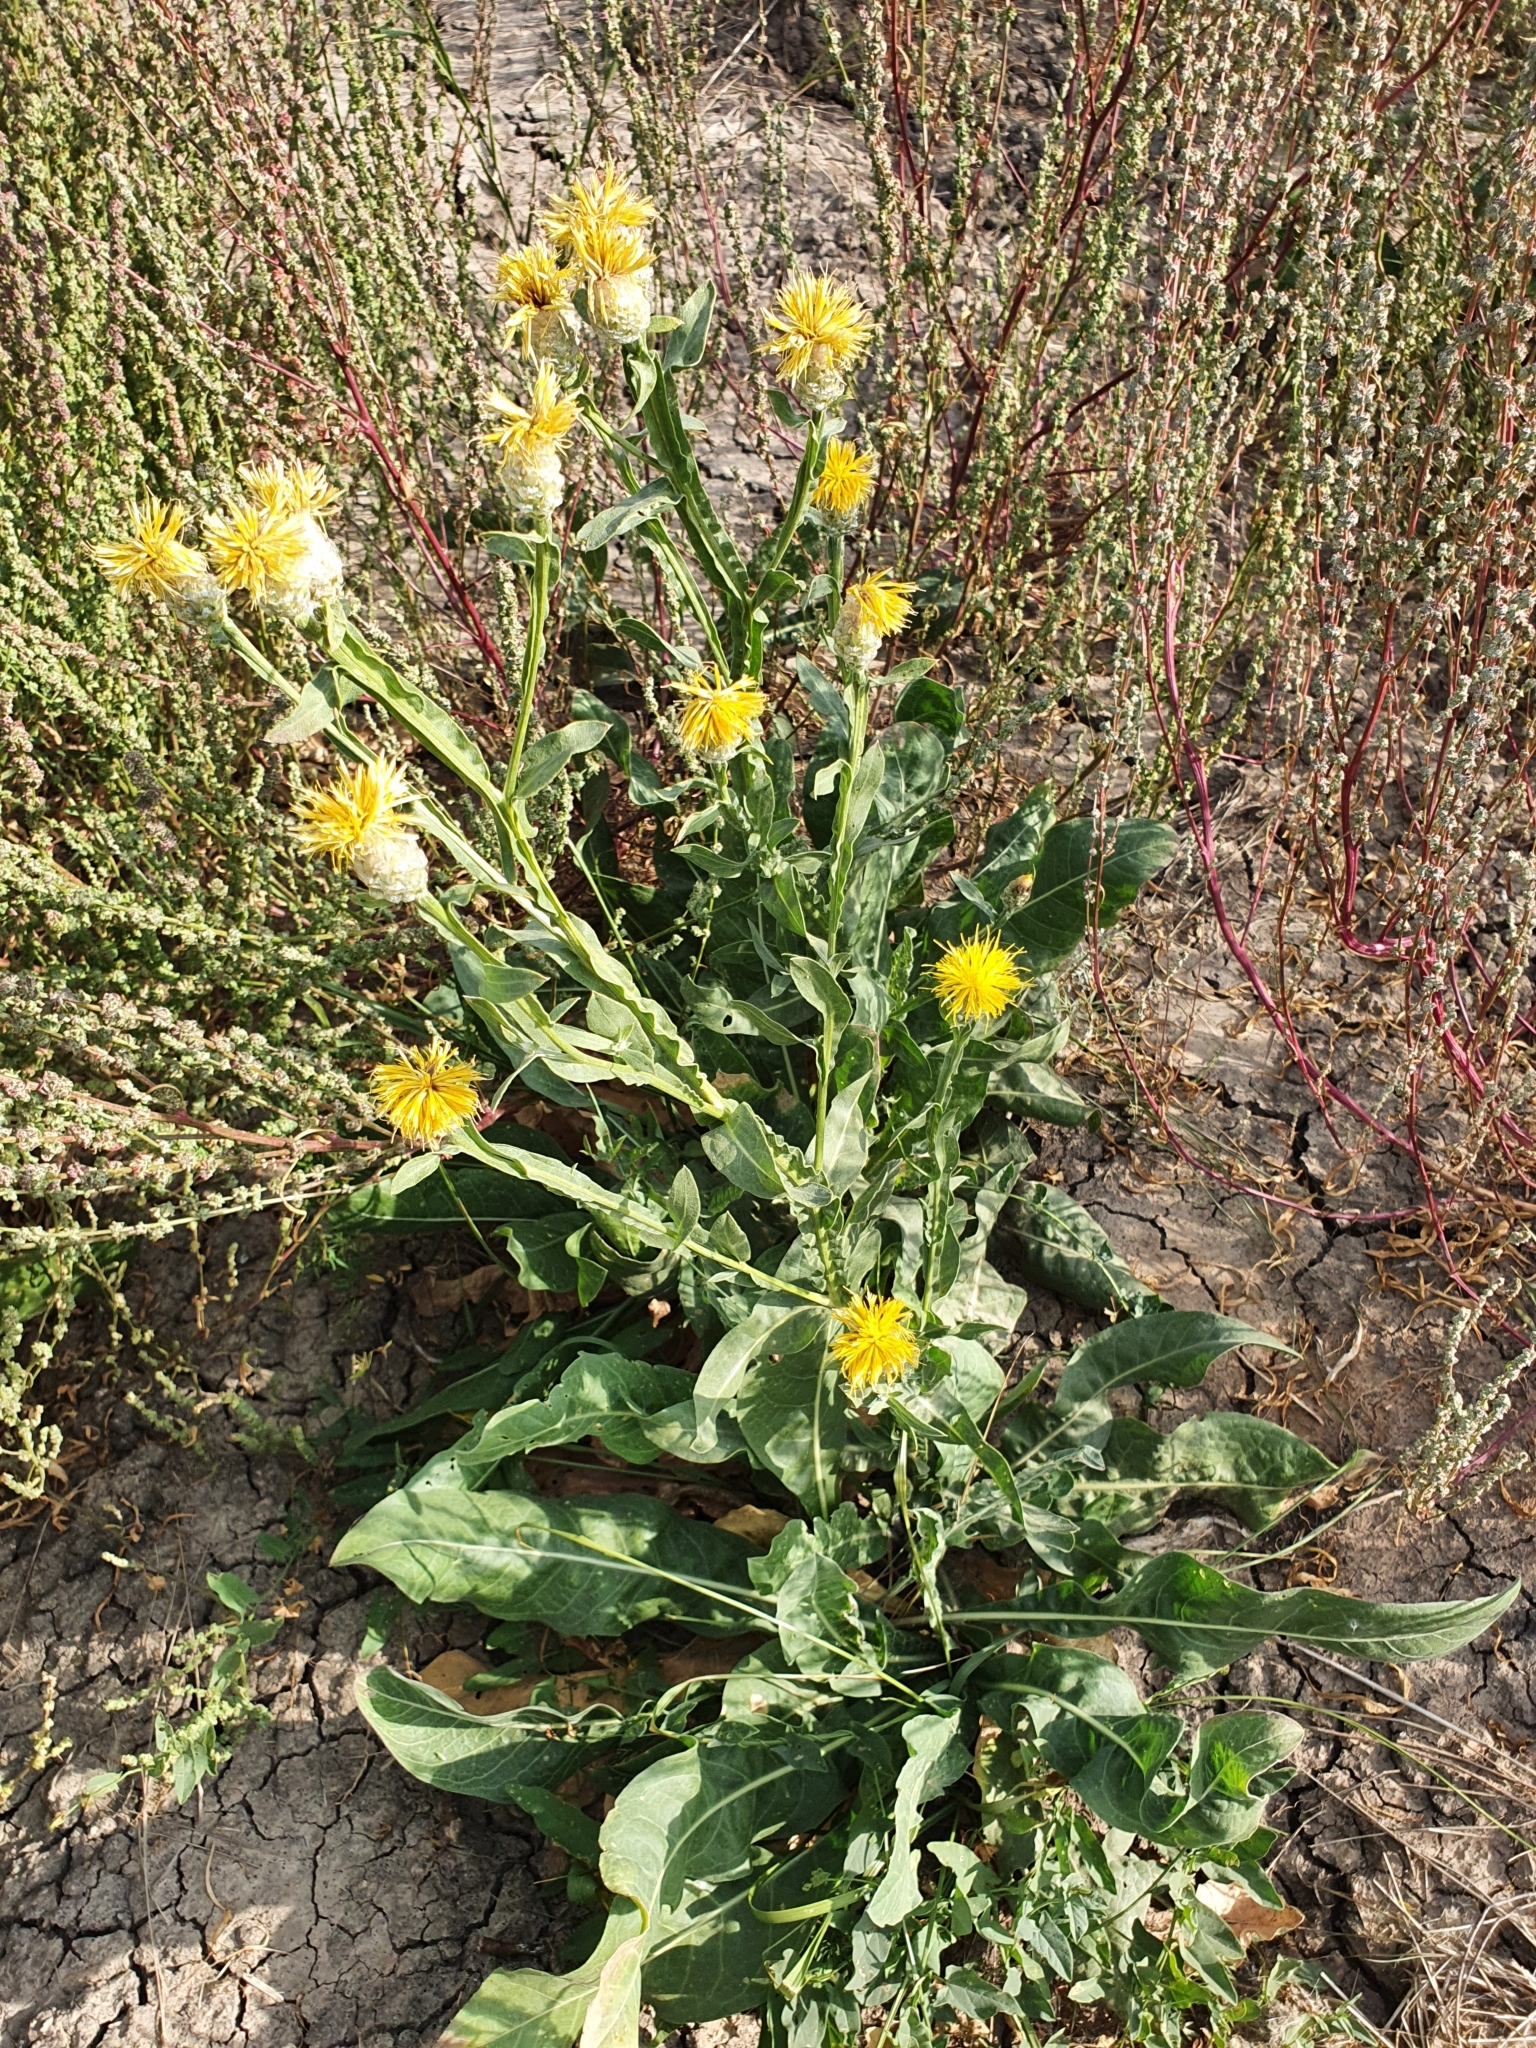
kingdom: Plantae
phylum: Tracheophyta
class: Magnoliopsida
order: Asterales
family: Asteraceae
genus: Centaurea
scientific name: Centaurea glastifolia
